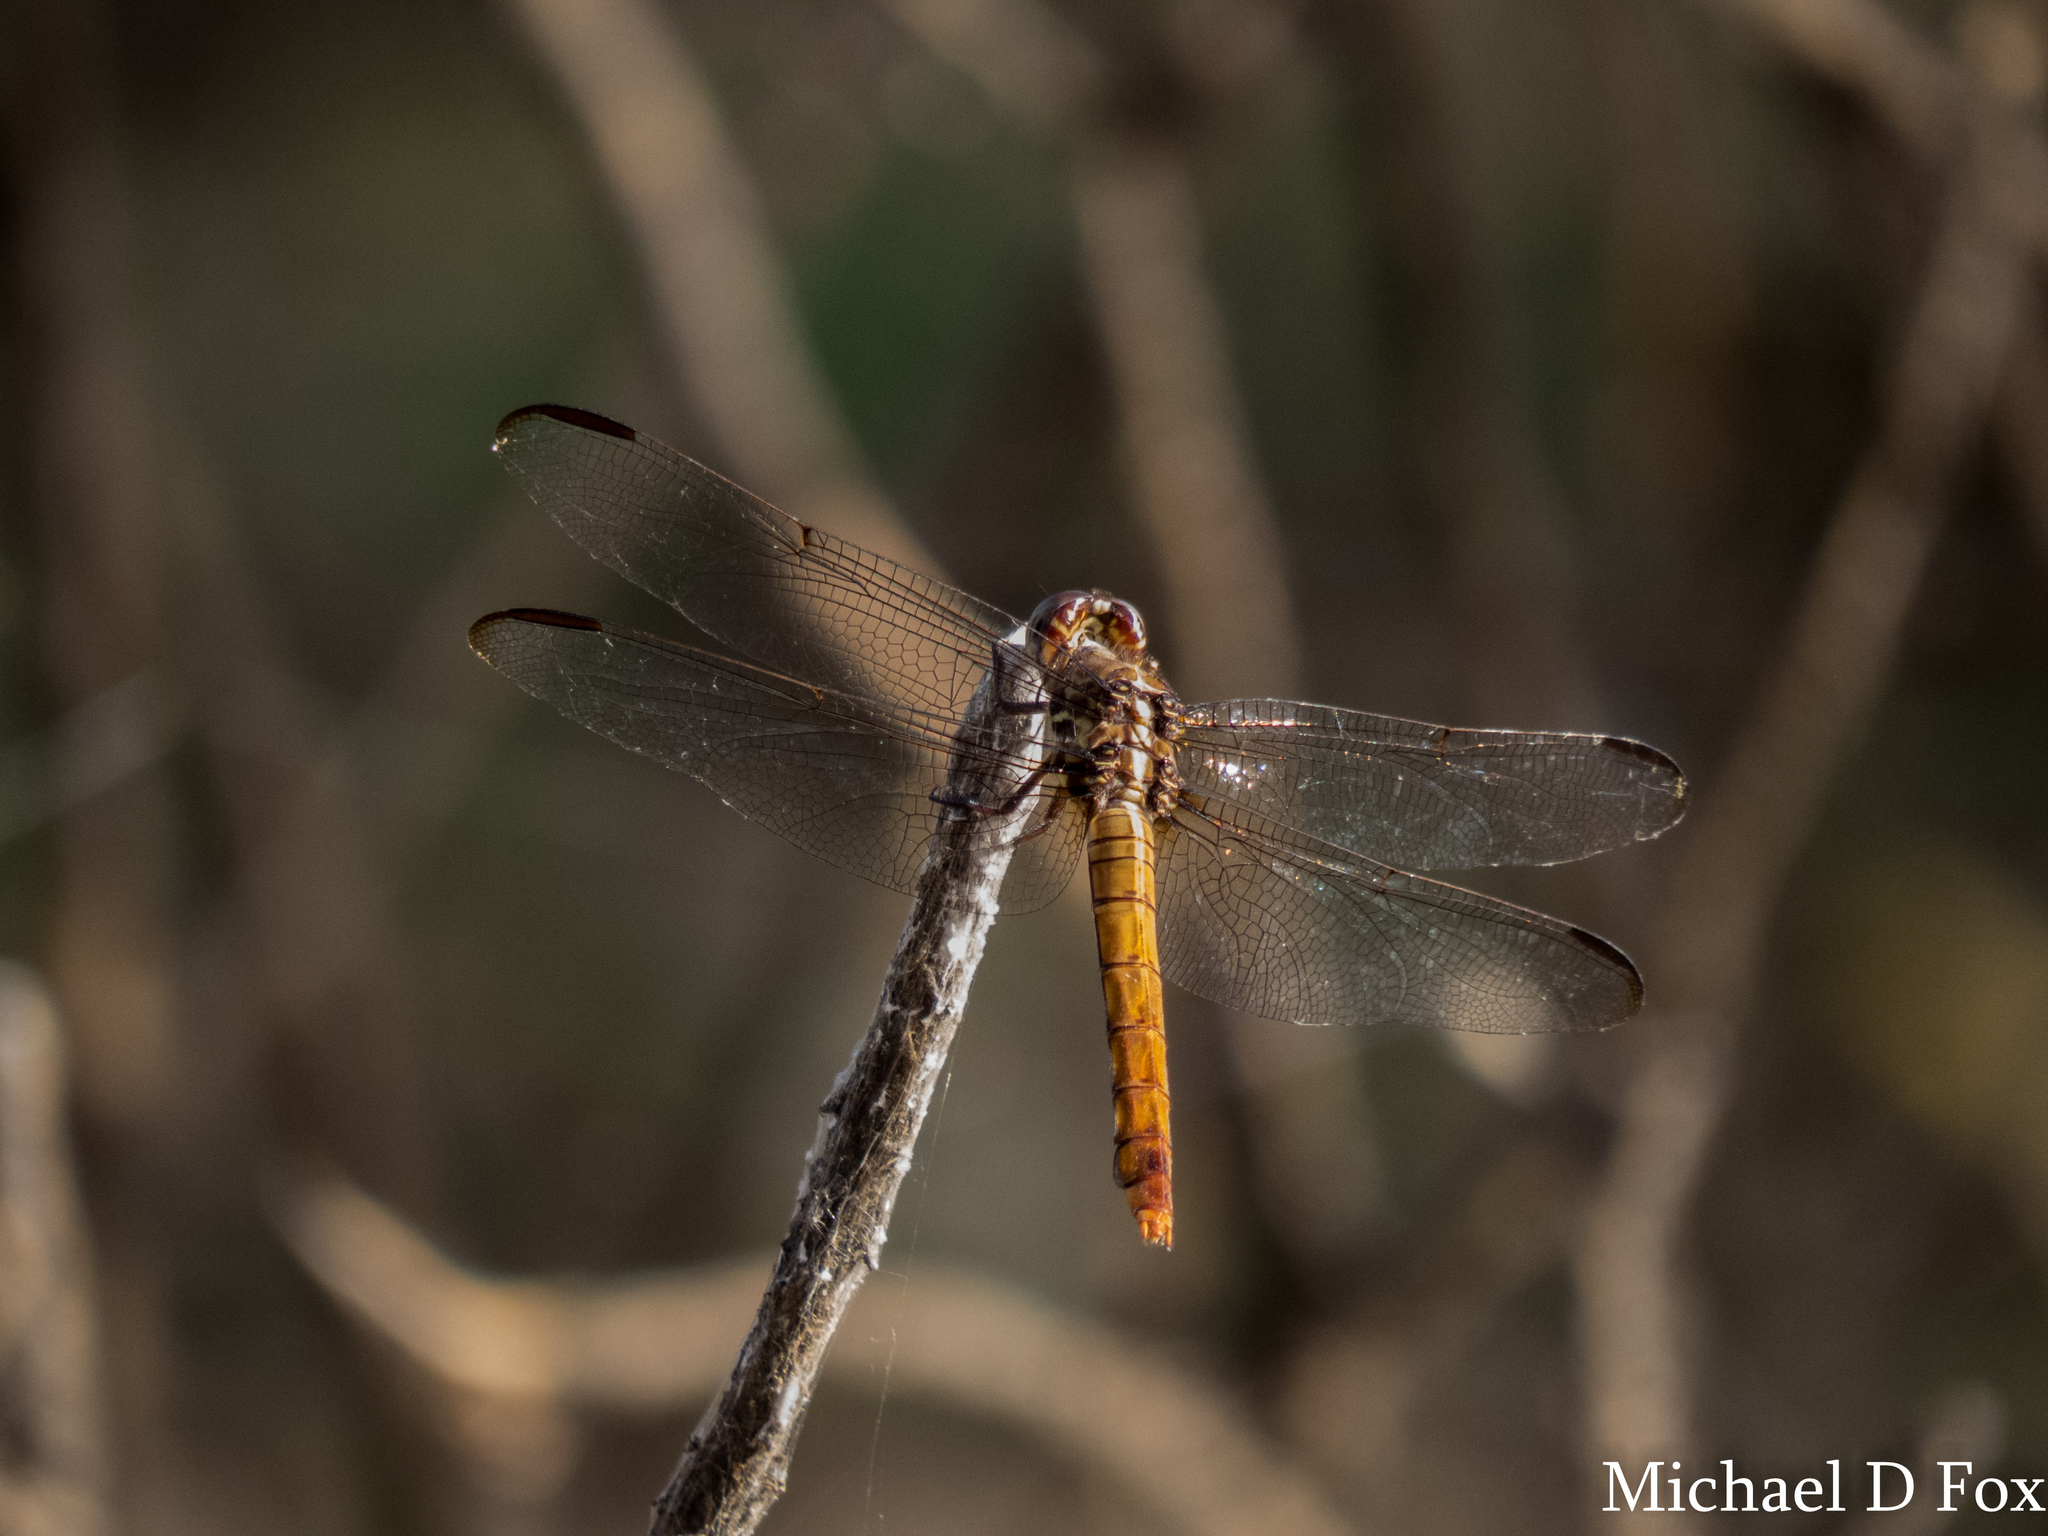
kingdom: Animalia
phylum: Arthropoda
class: Insecta
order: Odonata
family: Libellulidae
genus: Orthemis
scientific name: Orthemis ferruginea
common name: Roseate skimmer
